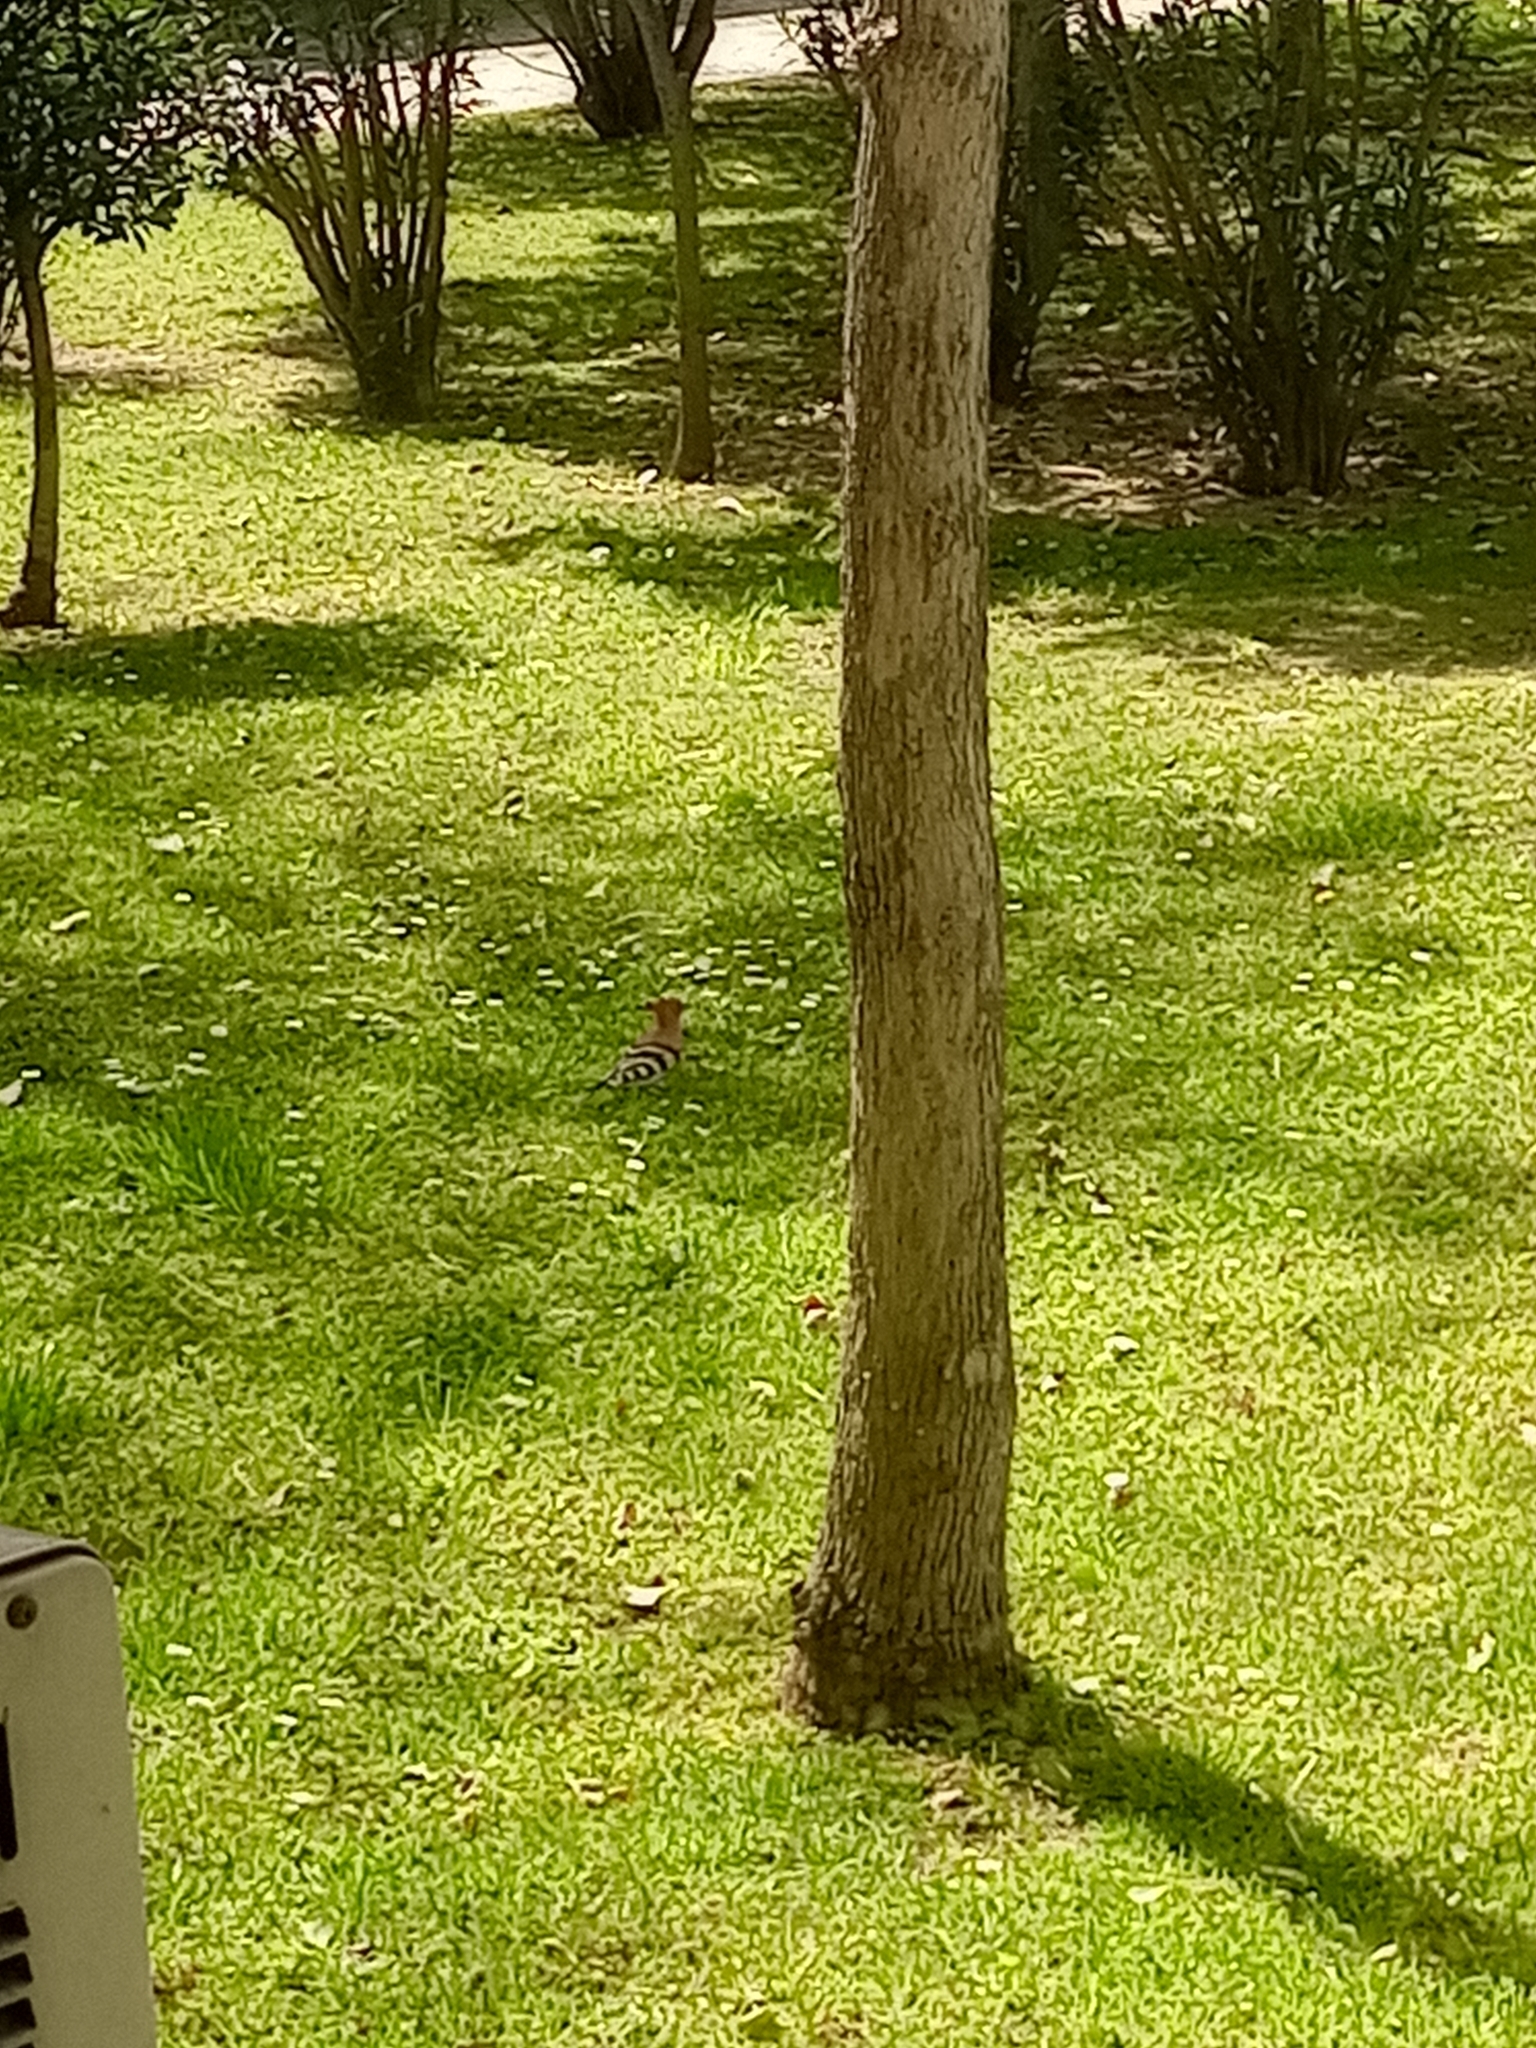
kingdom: Animalia
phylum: Chordata
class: Aves
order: Bucerotiformes
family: Upupidae
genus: Upupa
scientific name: Upupa epops
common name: Eurasian hoopoe
